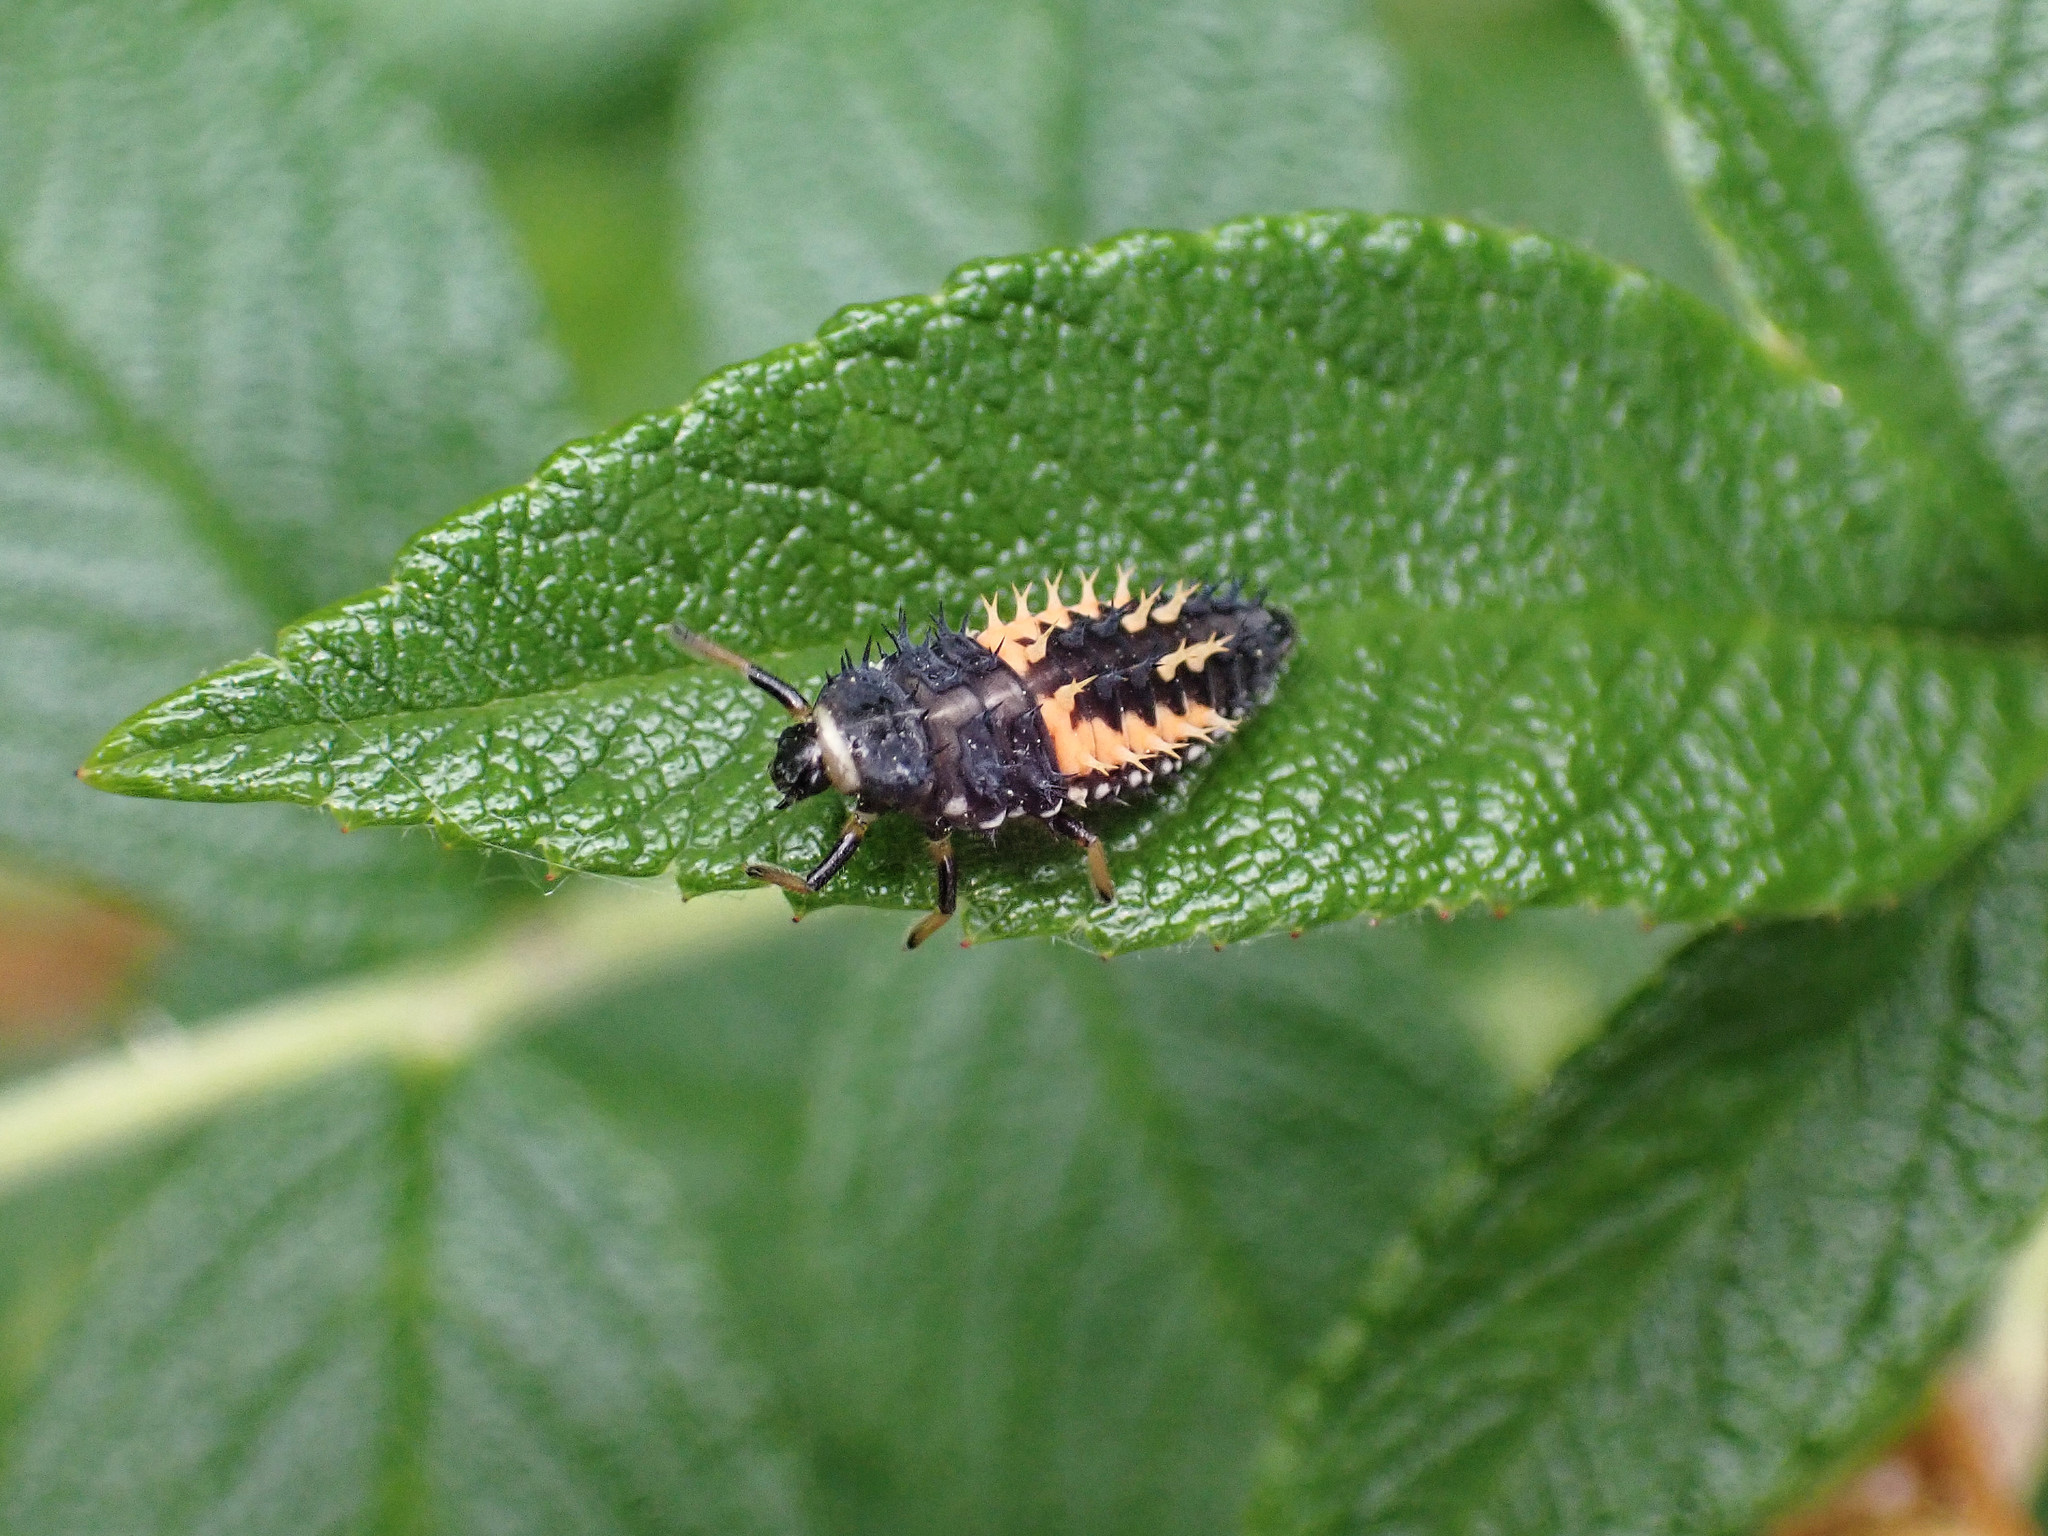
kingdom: Animalia
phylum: Arthropoda
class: Insecta
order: Coleoptera
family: Coccinellidae
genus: Harmonia
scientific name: Harmonia axyridis
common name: Harlequin ladybird
